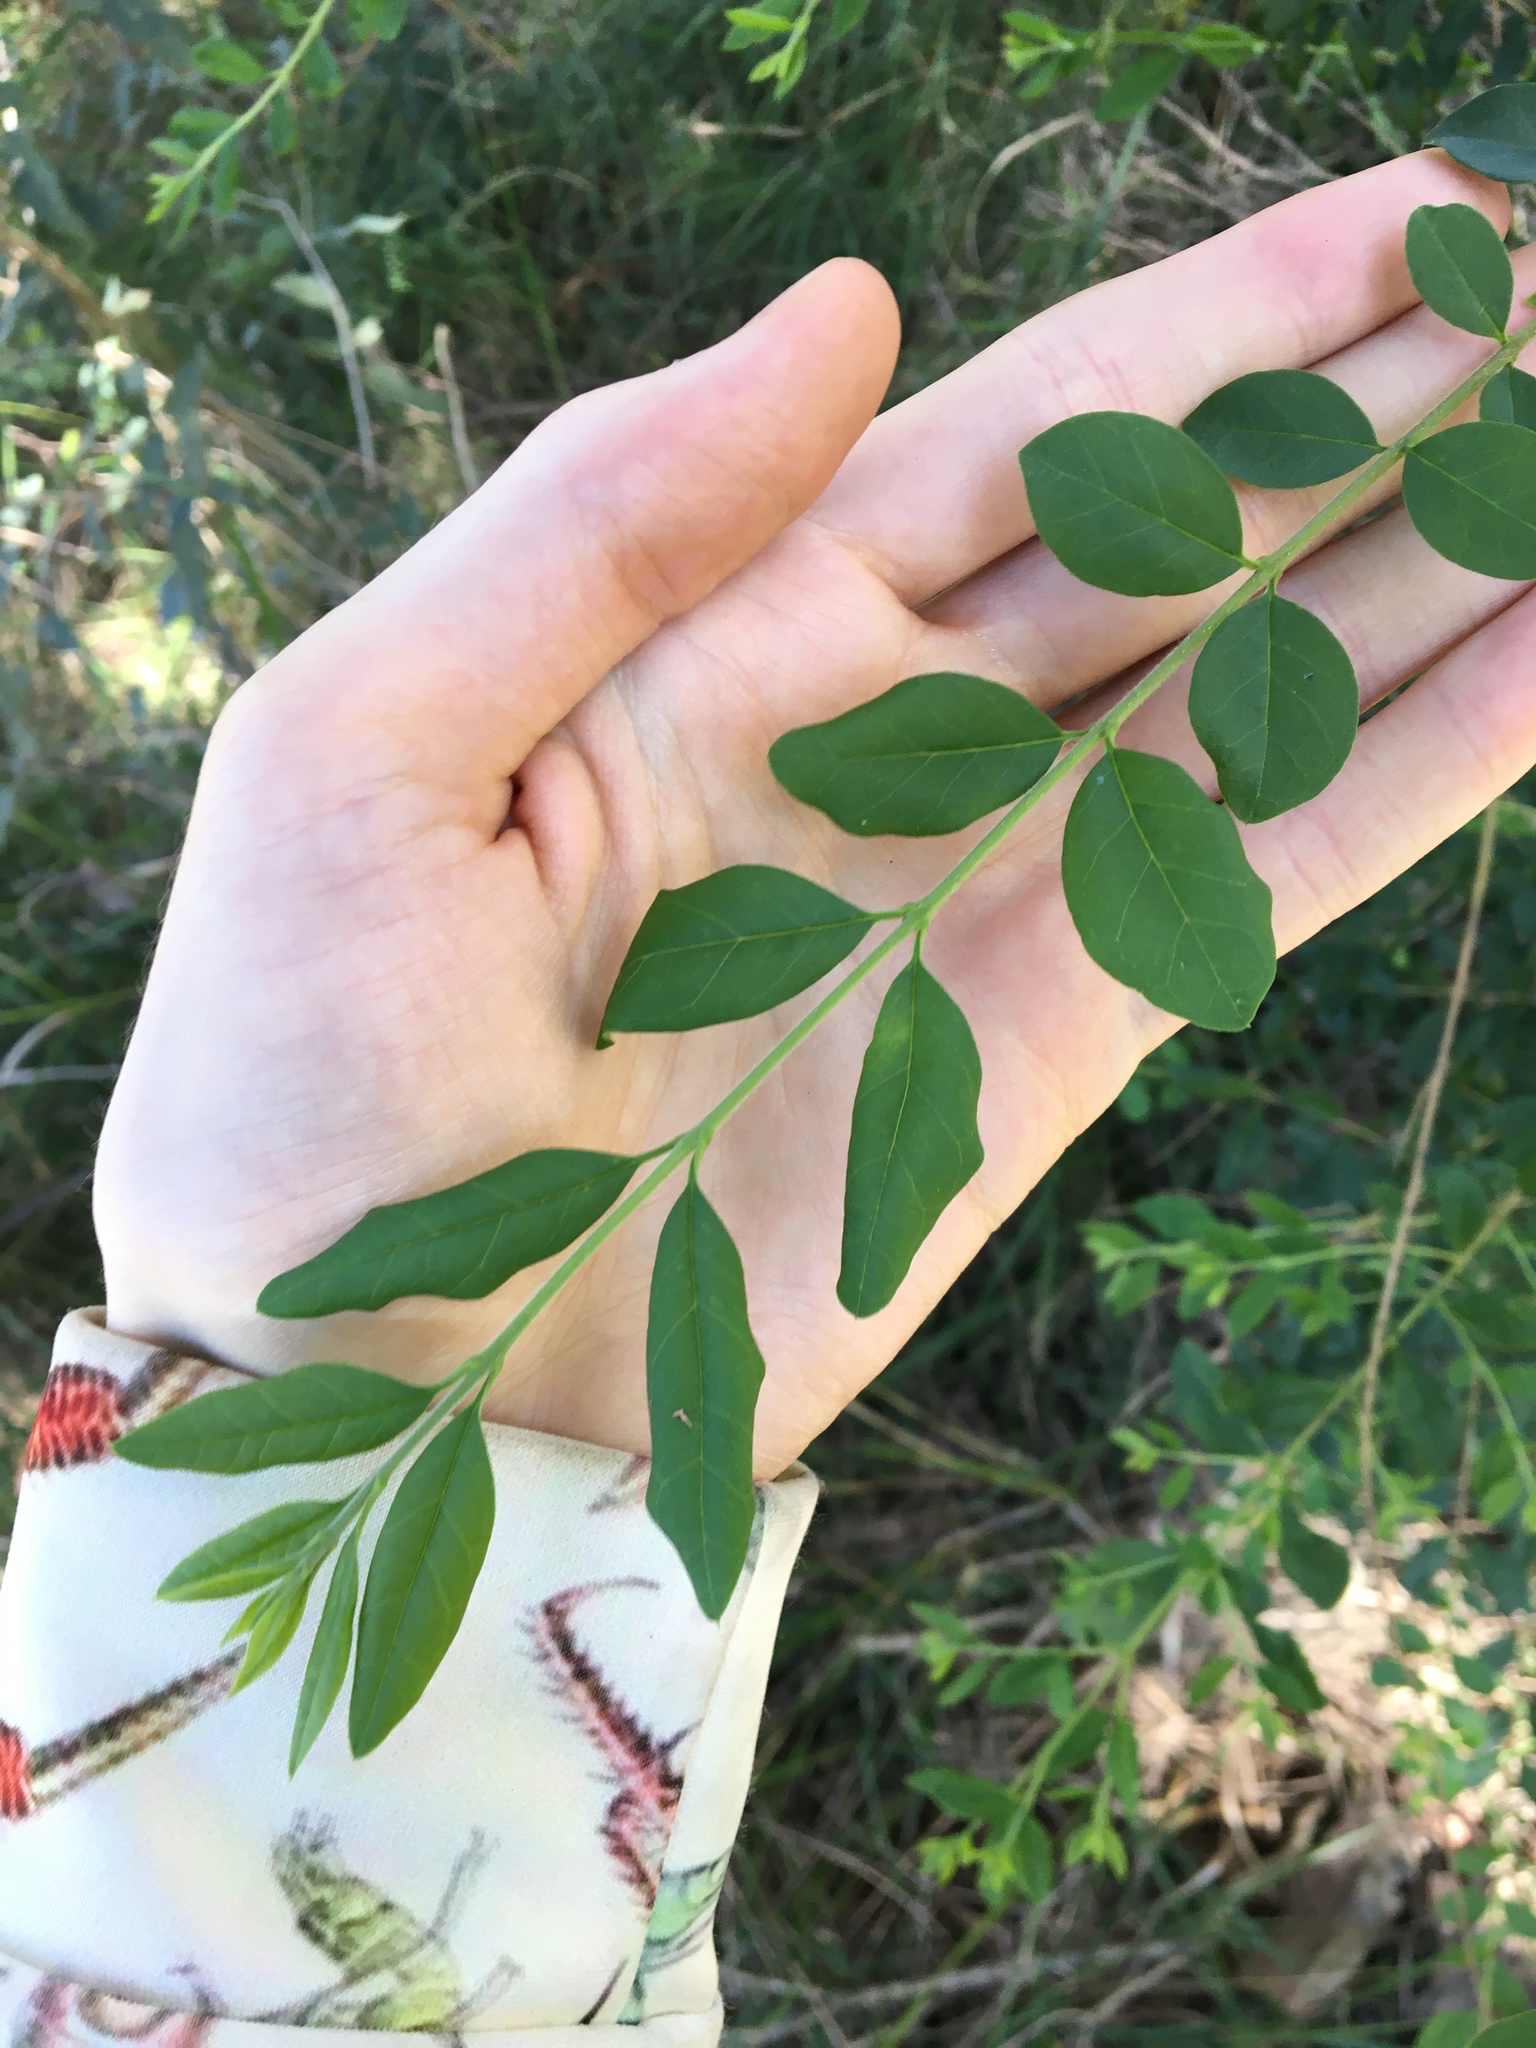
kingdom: Plantae
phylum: Tracheophyta
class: Magnoliopsida
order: Lamiales
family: Oleaceae
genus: Ligustrum
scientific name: Ligustrum sinense
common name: Chinese privet
